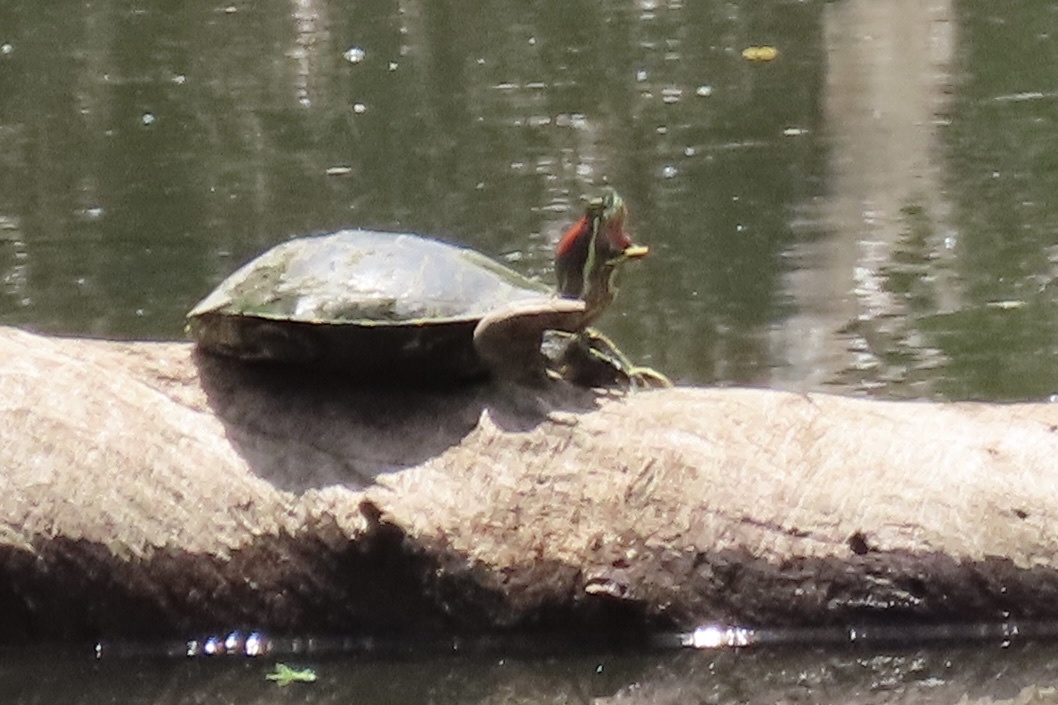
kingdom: Animalia
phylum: Chordata
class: Testudines
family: Emydidae
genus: Trachemys
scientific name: Trachemys scripta
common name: Slider
